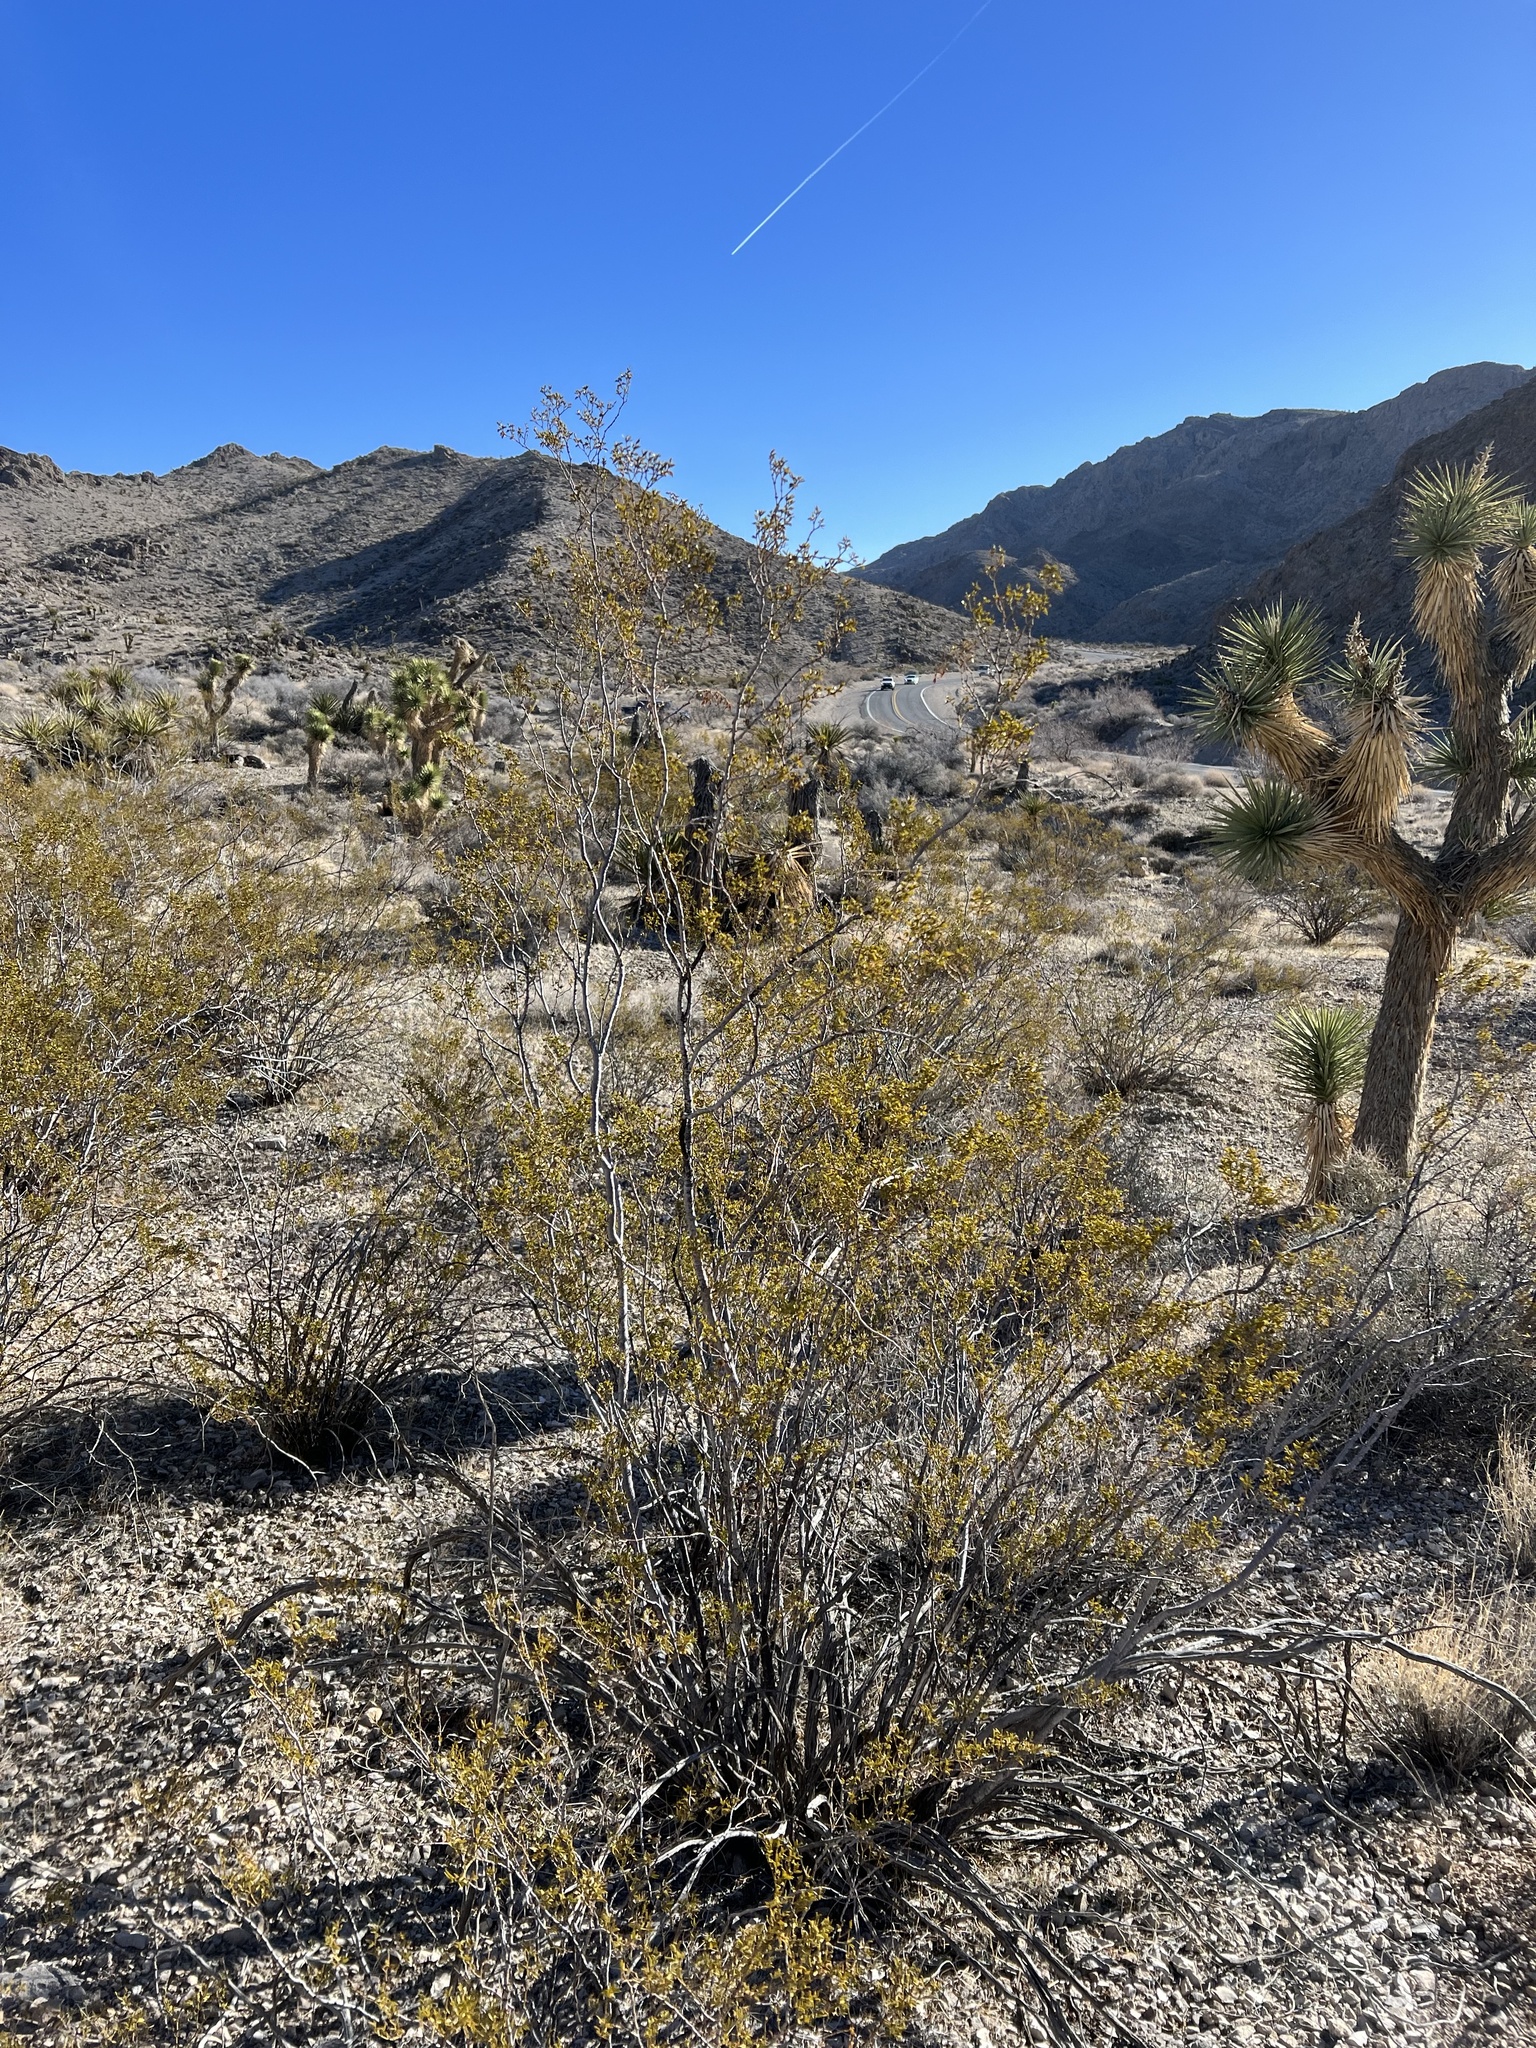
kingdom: Plantae
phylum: Tracheophyta
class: Magnoliopsida
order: Zygophyllales
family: Zygophyllaceae
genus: Larrea
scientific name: Larrea tridentata
